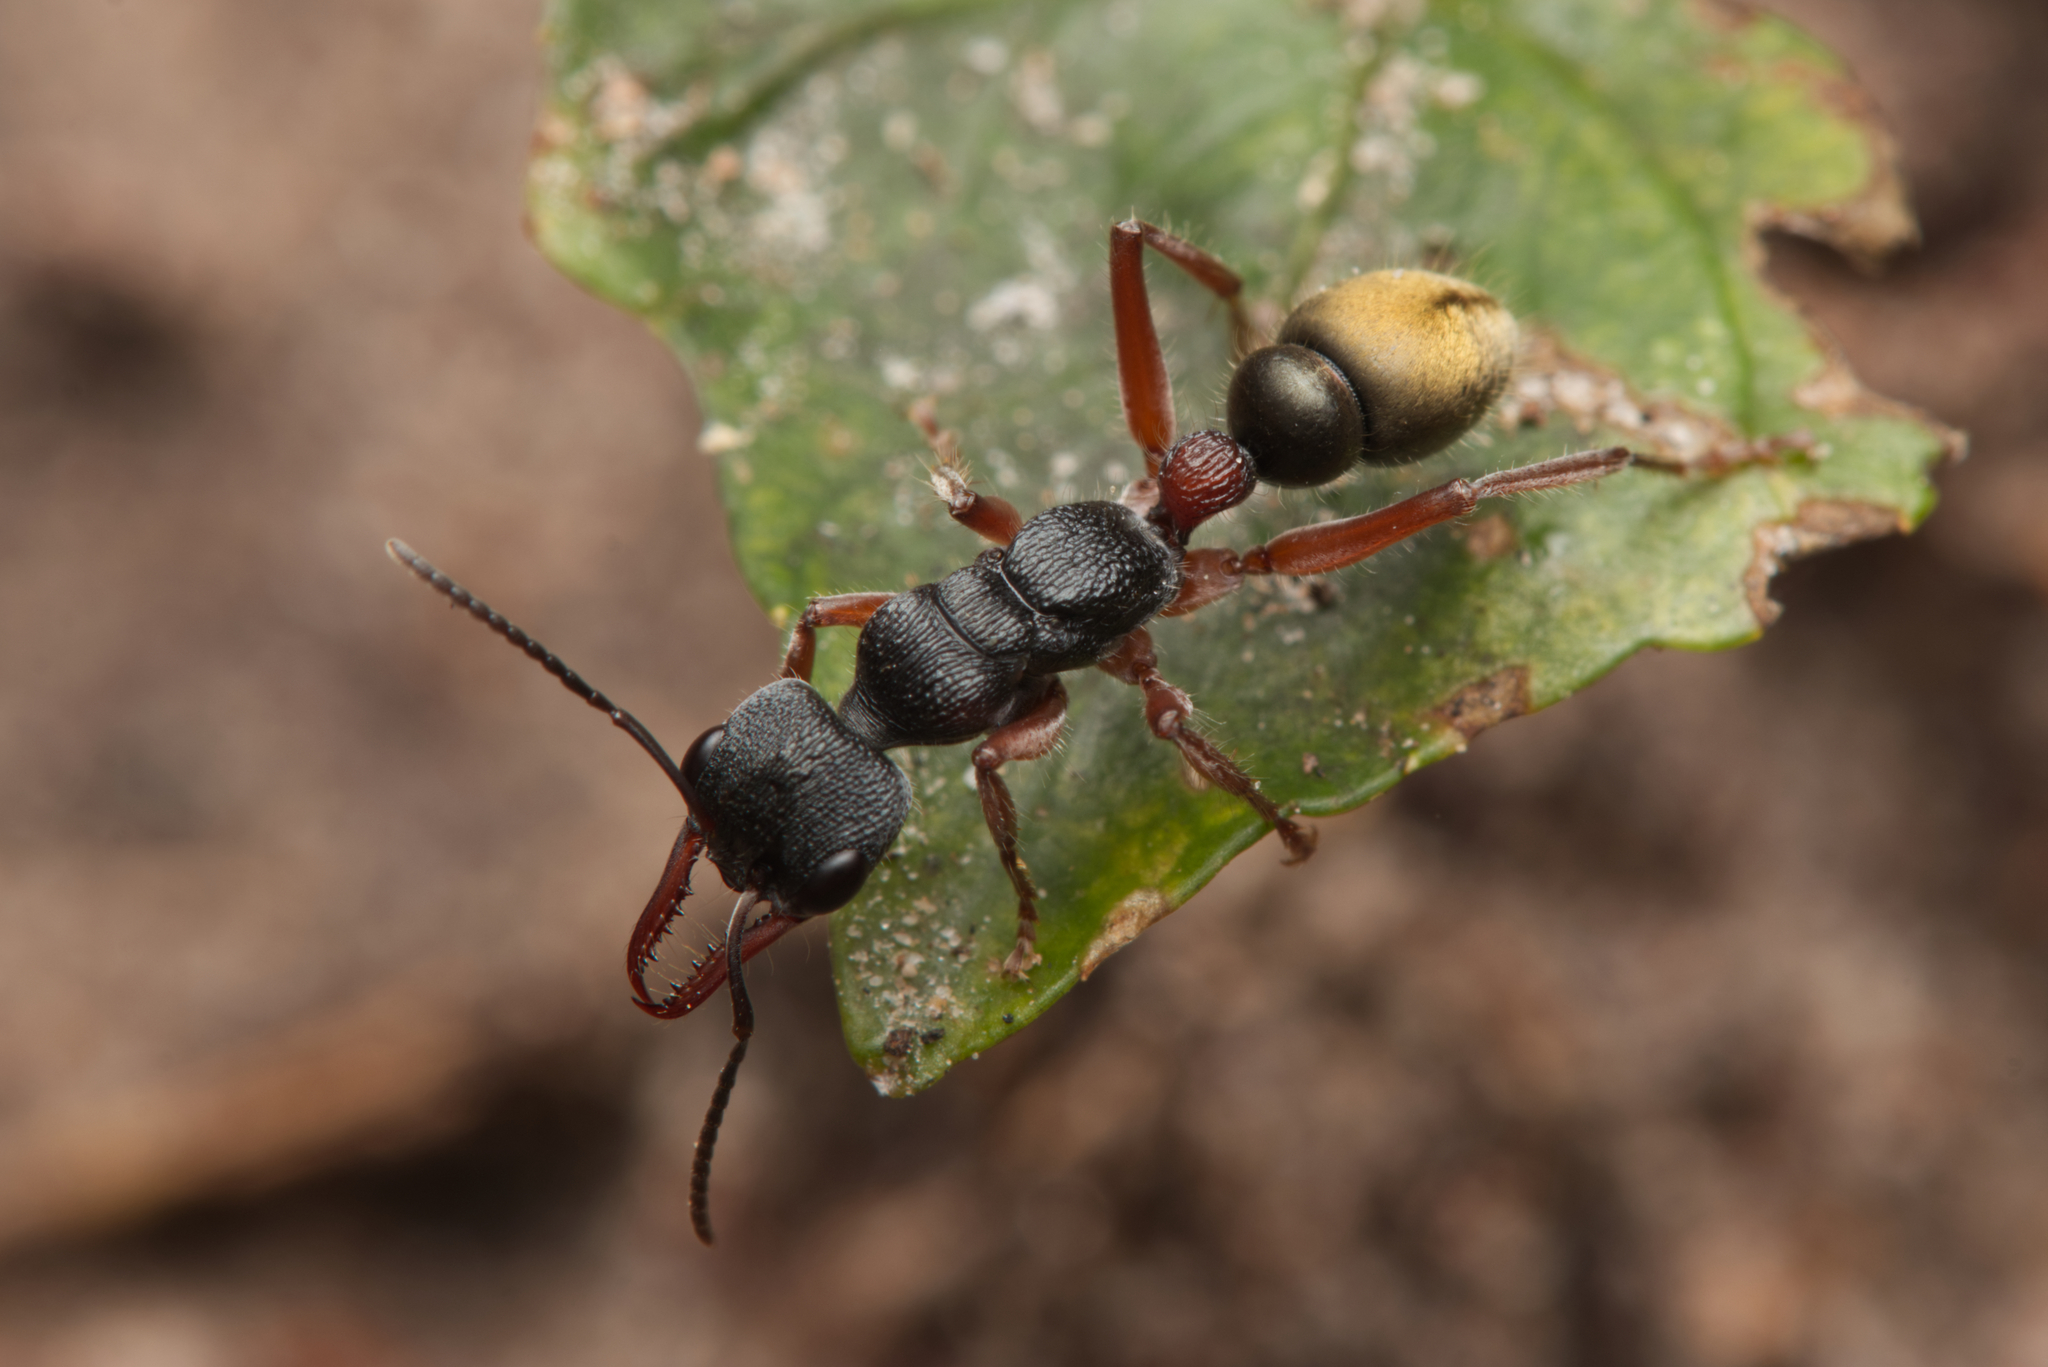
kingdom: Animalia
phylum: Arthropoda
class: Insecta
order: Hymenoptera
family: Formicidae
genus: Myrmecia
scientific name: Myrmecia chrysogaster
